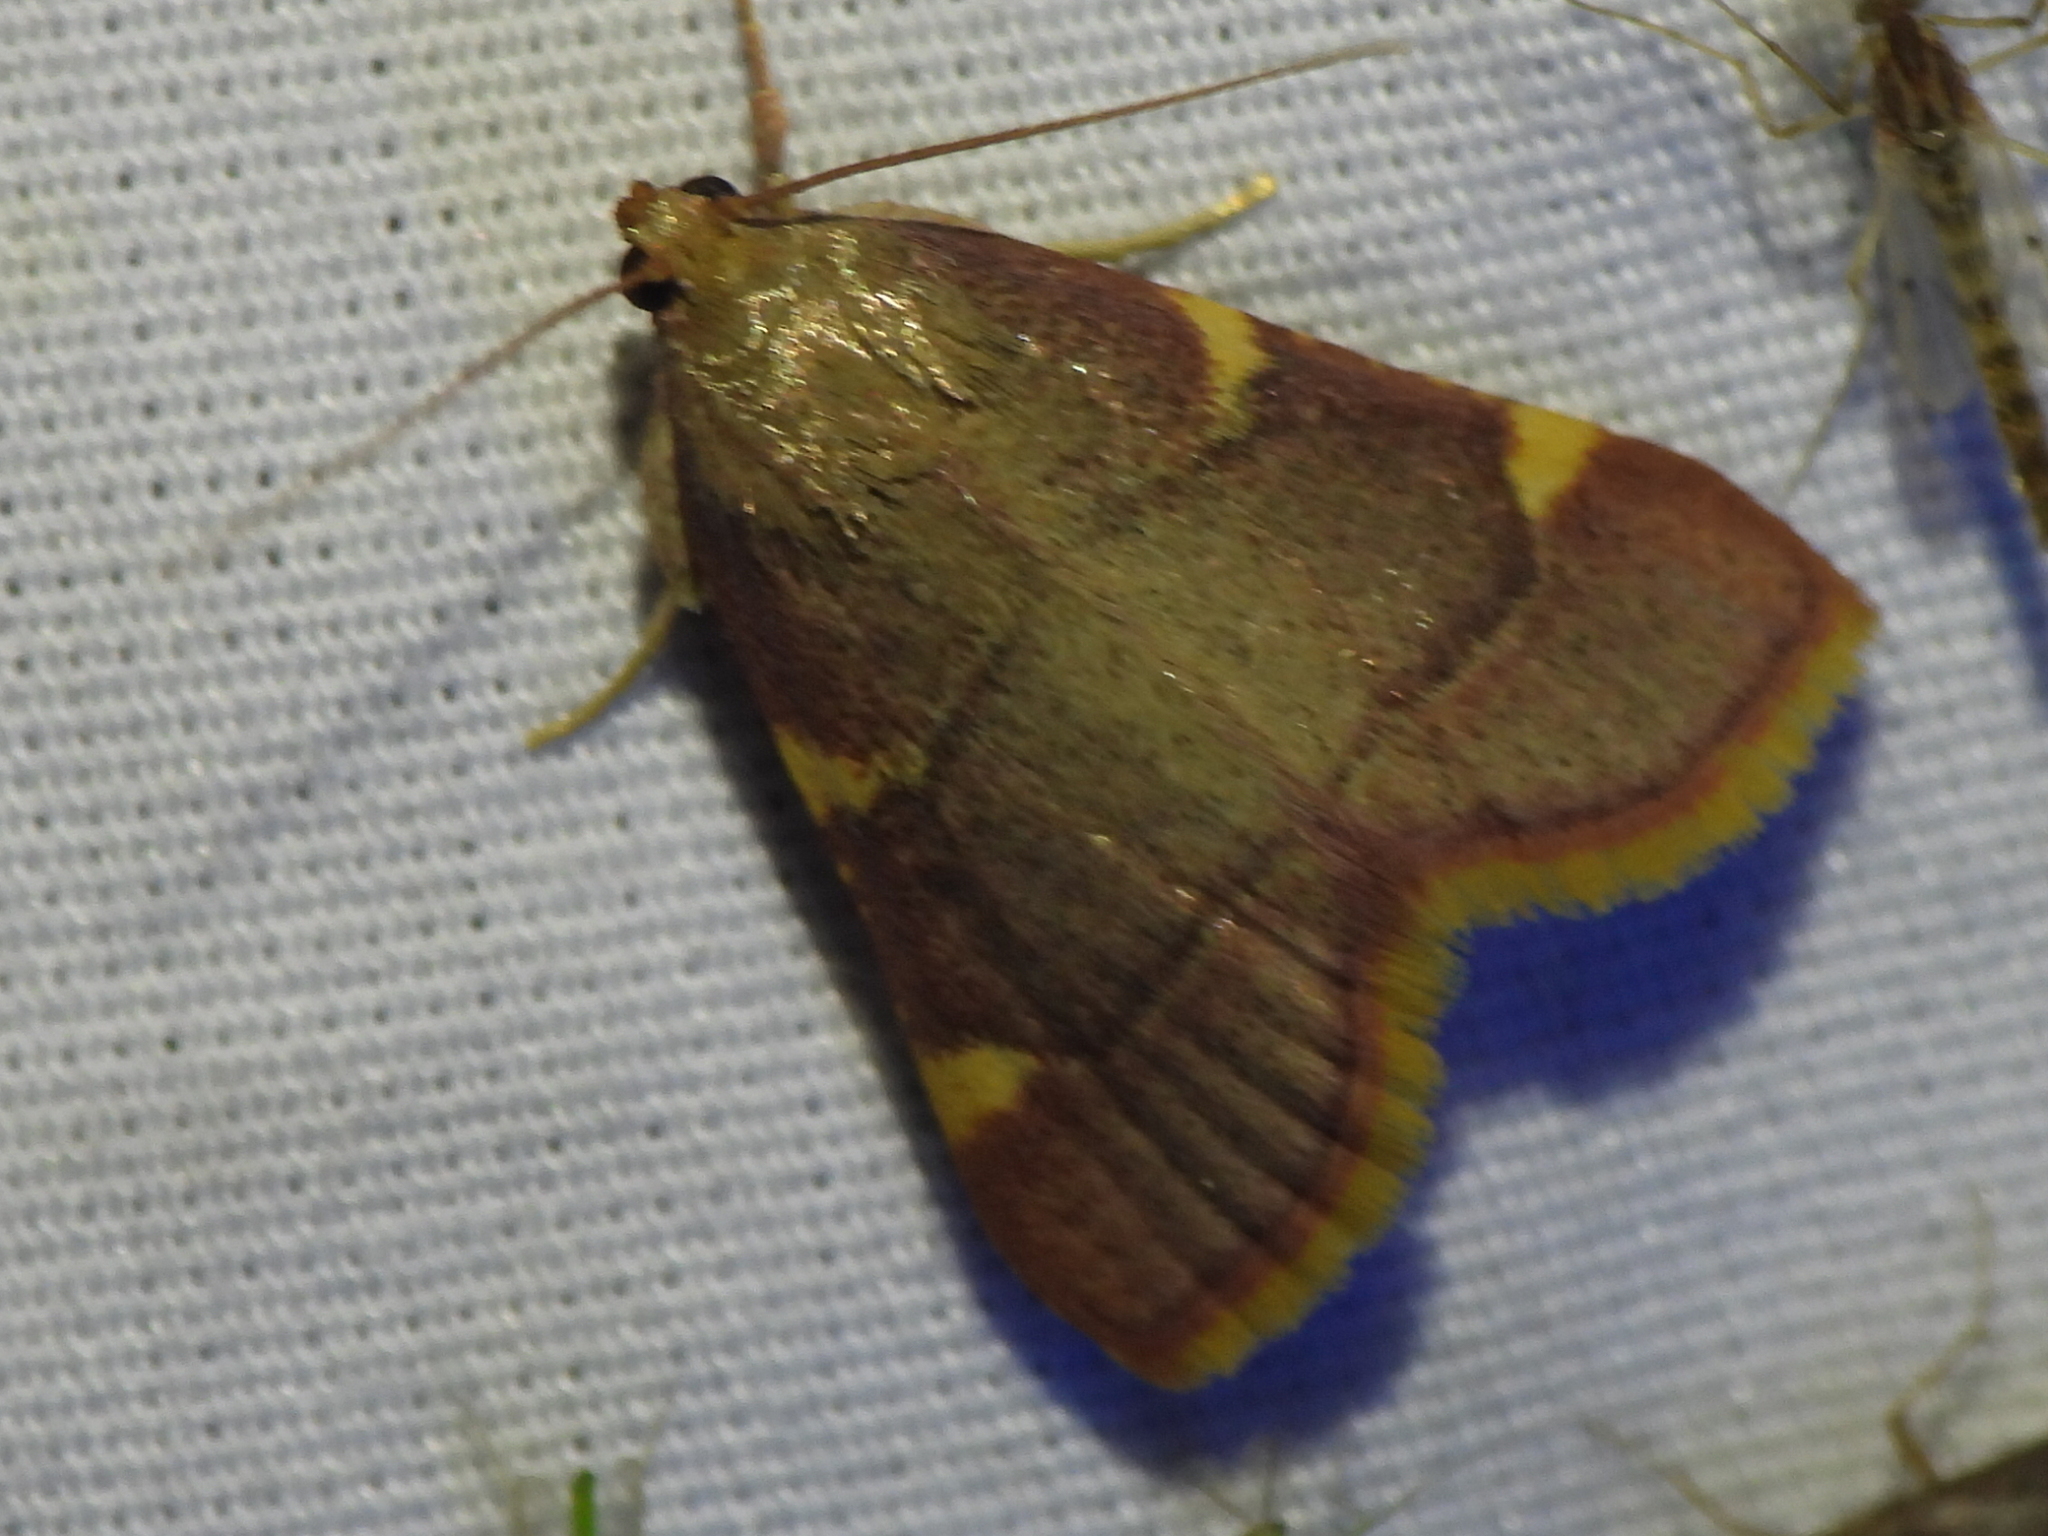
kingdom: Animalia
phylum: Arthropoda
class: Insecta
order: Lepidoptera
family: Pyralidae
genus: Hypsopygia
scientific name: Hypsopygia olinalis
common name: Yellow-fringed dolichomia moth
